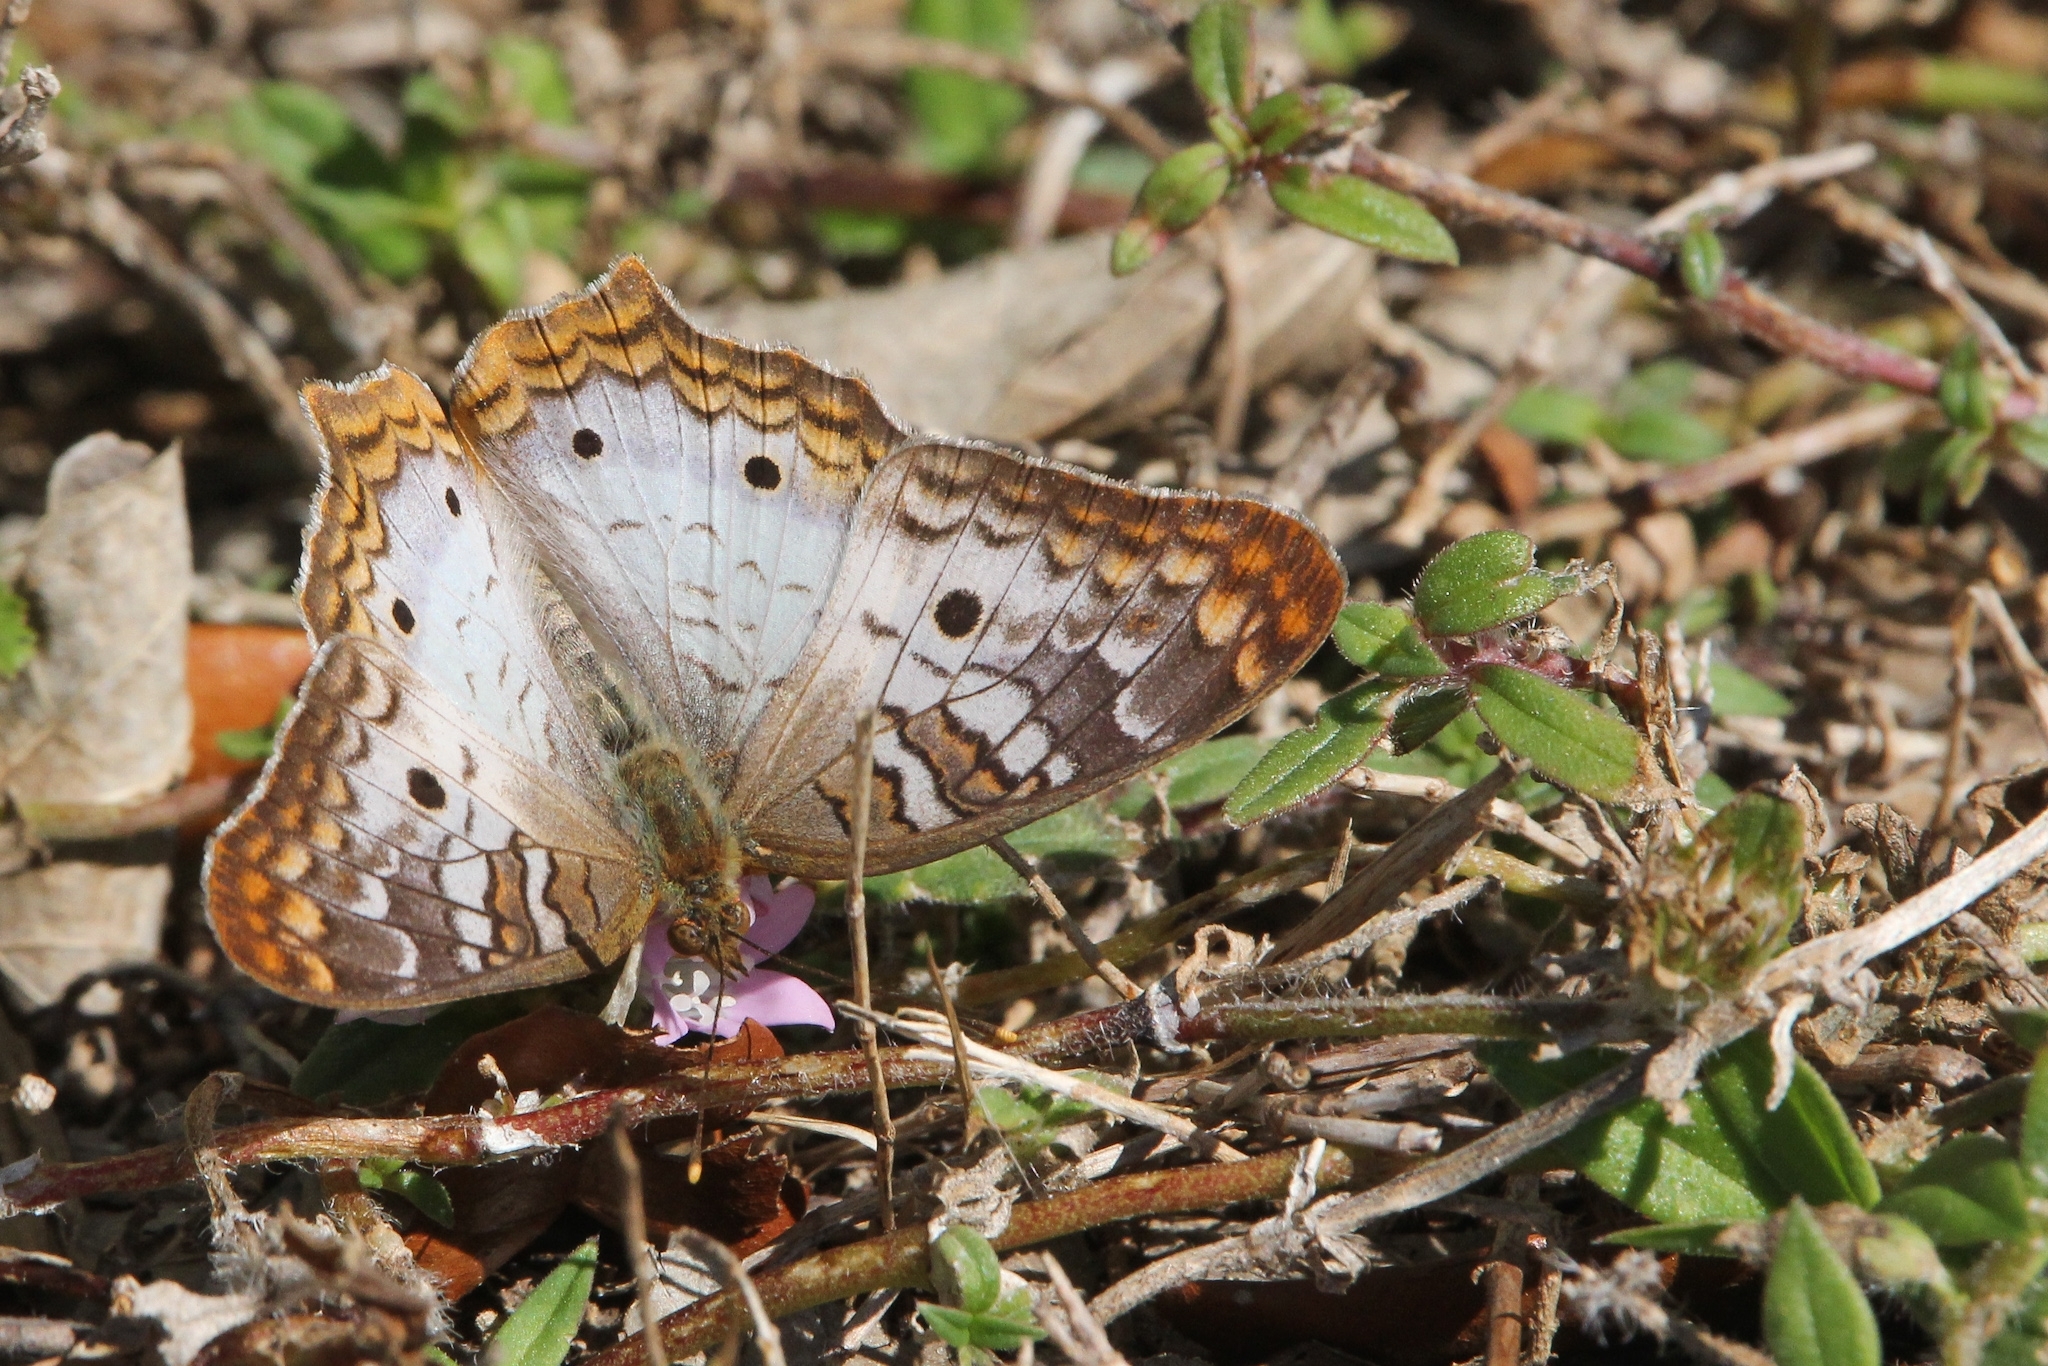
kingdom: Animalia
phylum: Arthropoda
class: Insecta
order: Lepidoptera
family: Nymphalidae
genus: Anartia
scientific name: Anartia jatrophae
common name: White peacock
